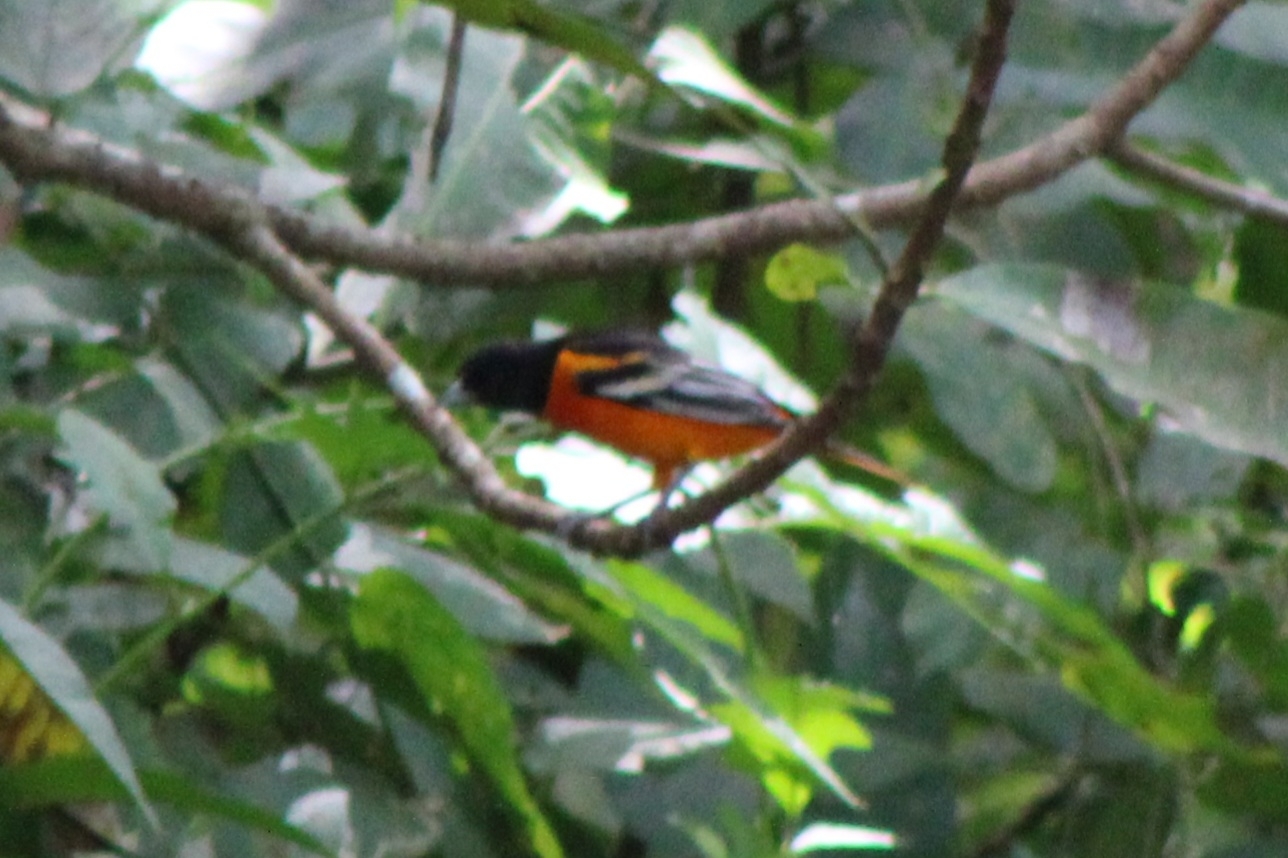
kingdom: Animalia
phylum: Chordata
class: Aves
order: Passeriformes
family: Icteridae
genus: Icterus
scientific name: Icterus galbula
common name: Baltimore oriole
